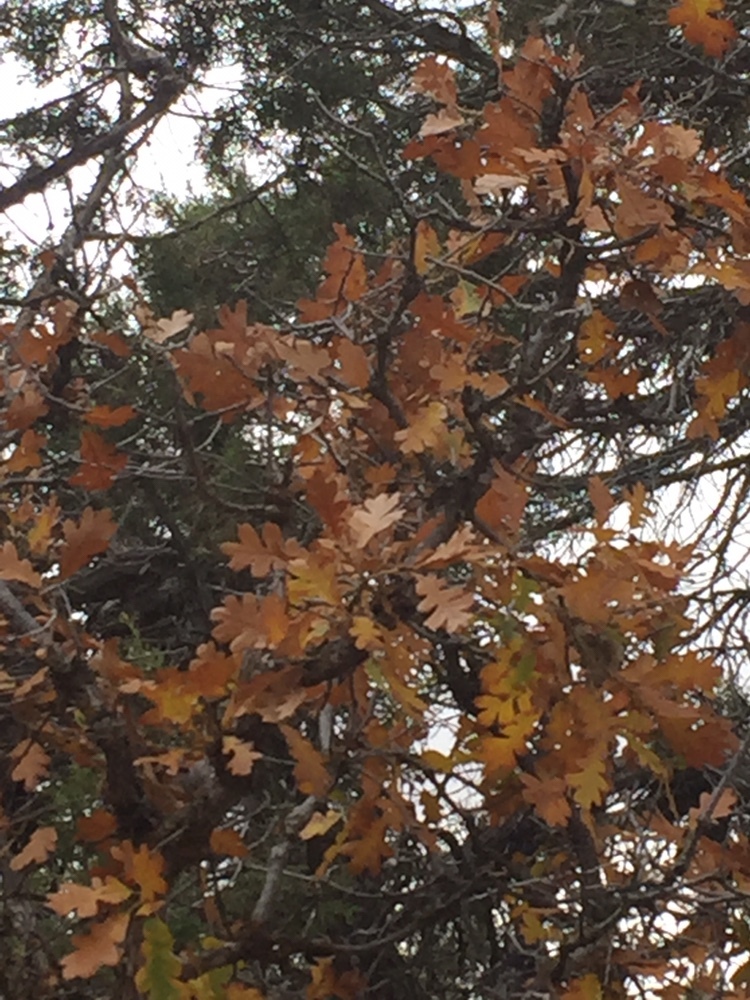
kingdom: Plantae
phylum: Tracheophyta
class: Magnoliopsida
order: Fagales
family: Fagaceae
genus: Quercus
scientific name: Quercus gambelii
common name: Gambel oak
